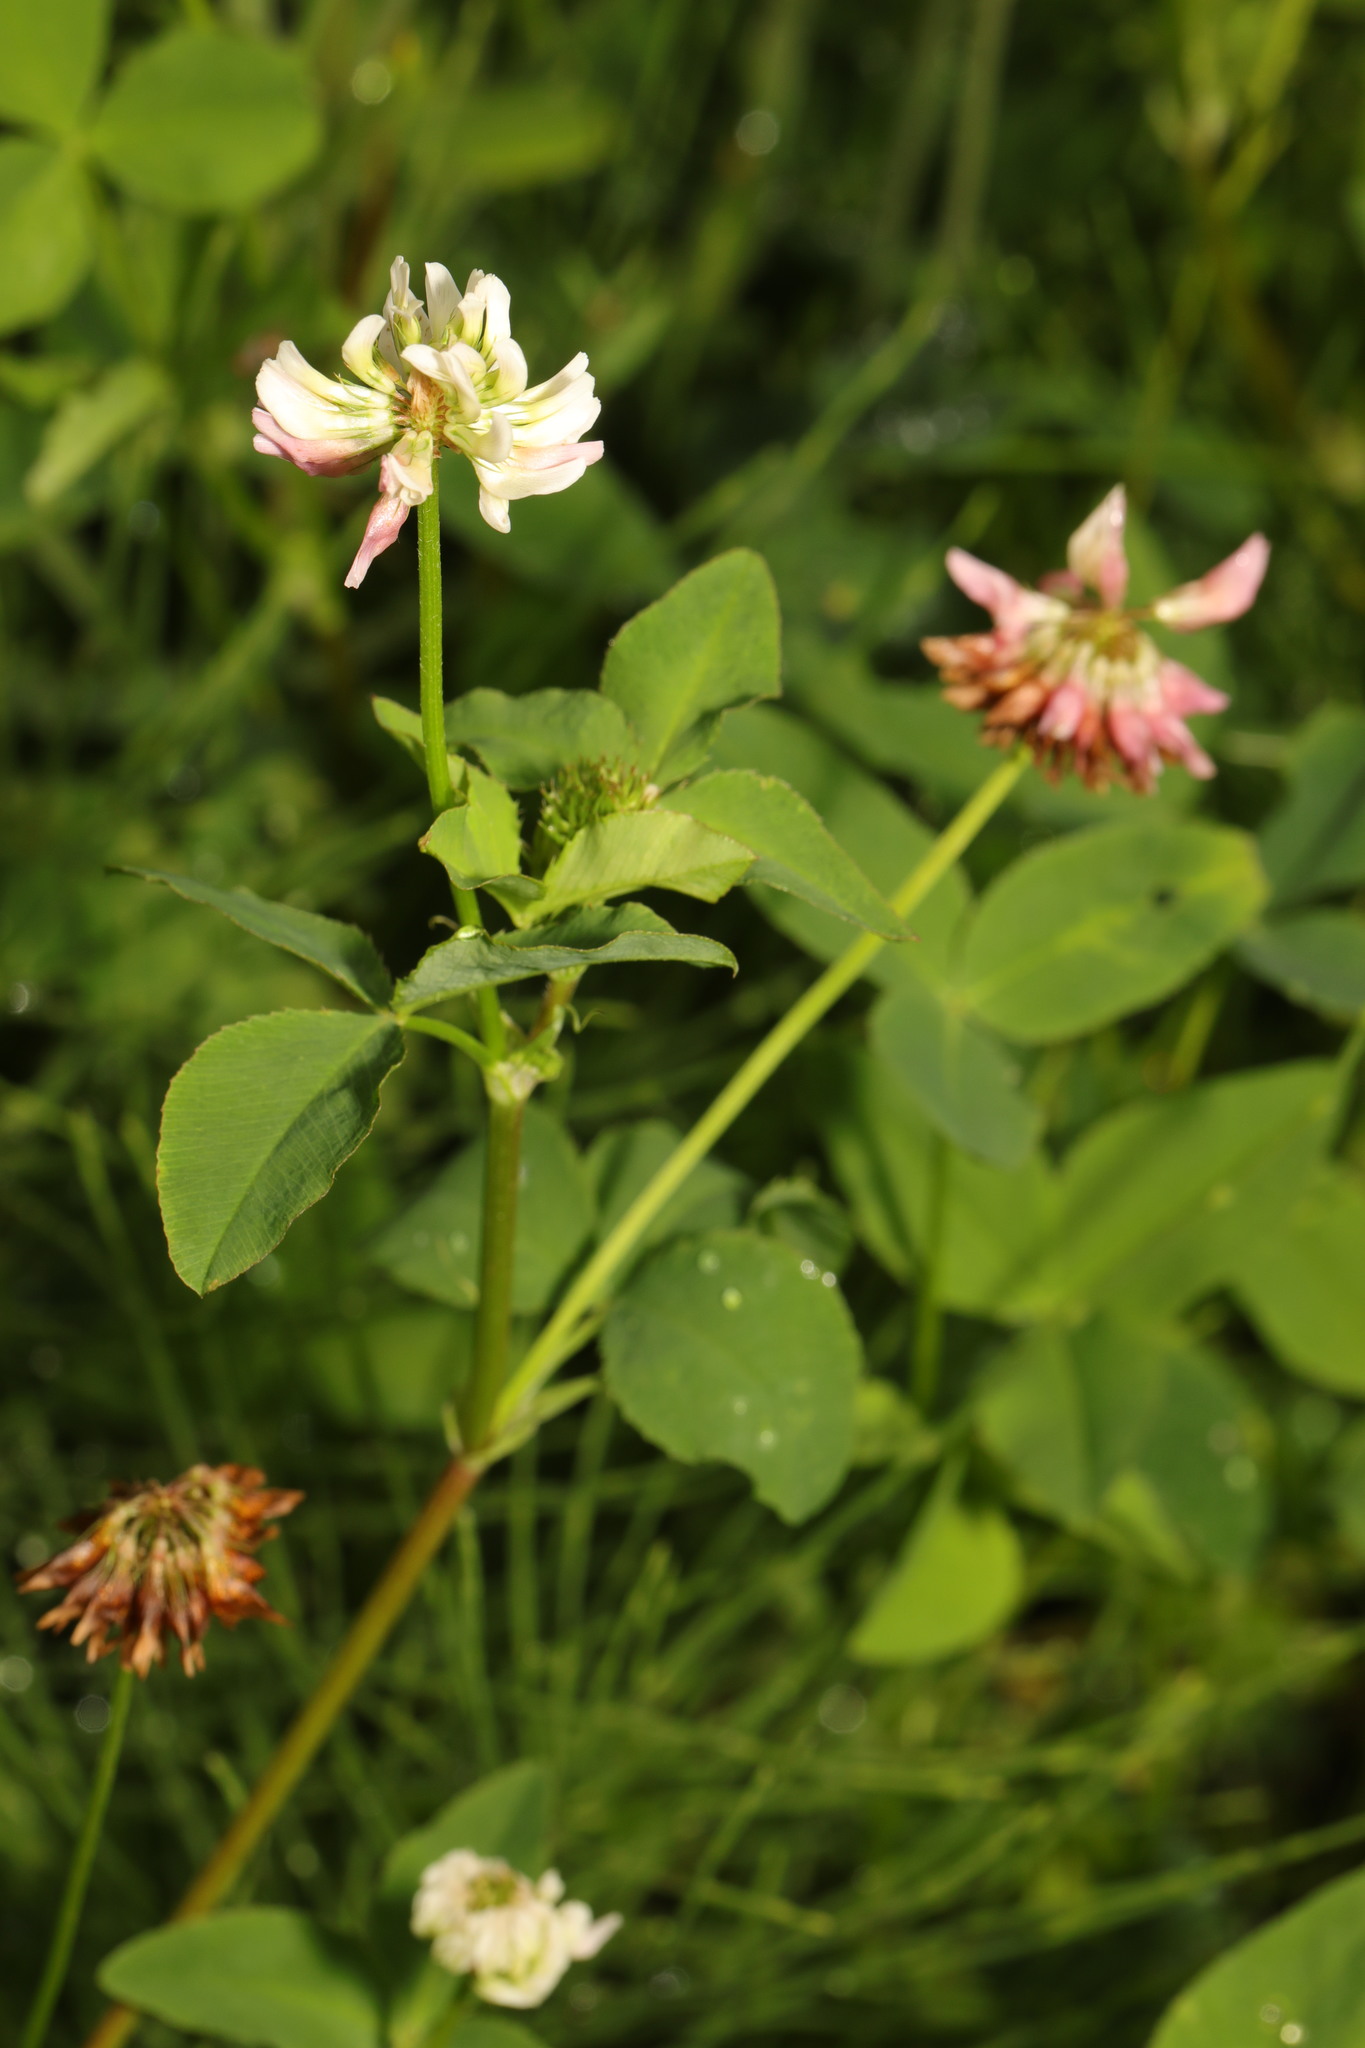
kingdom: Plantae
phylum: Tracheophyta
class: Magnoliopsida
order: Fabales
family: Fabaceae
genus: Trifolium
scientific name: Trifolium hybridum
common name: Alsike clover
